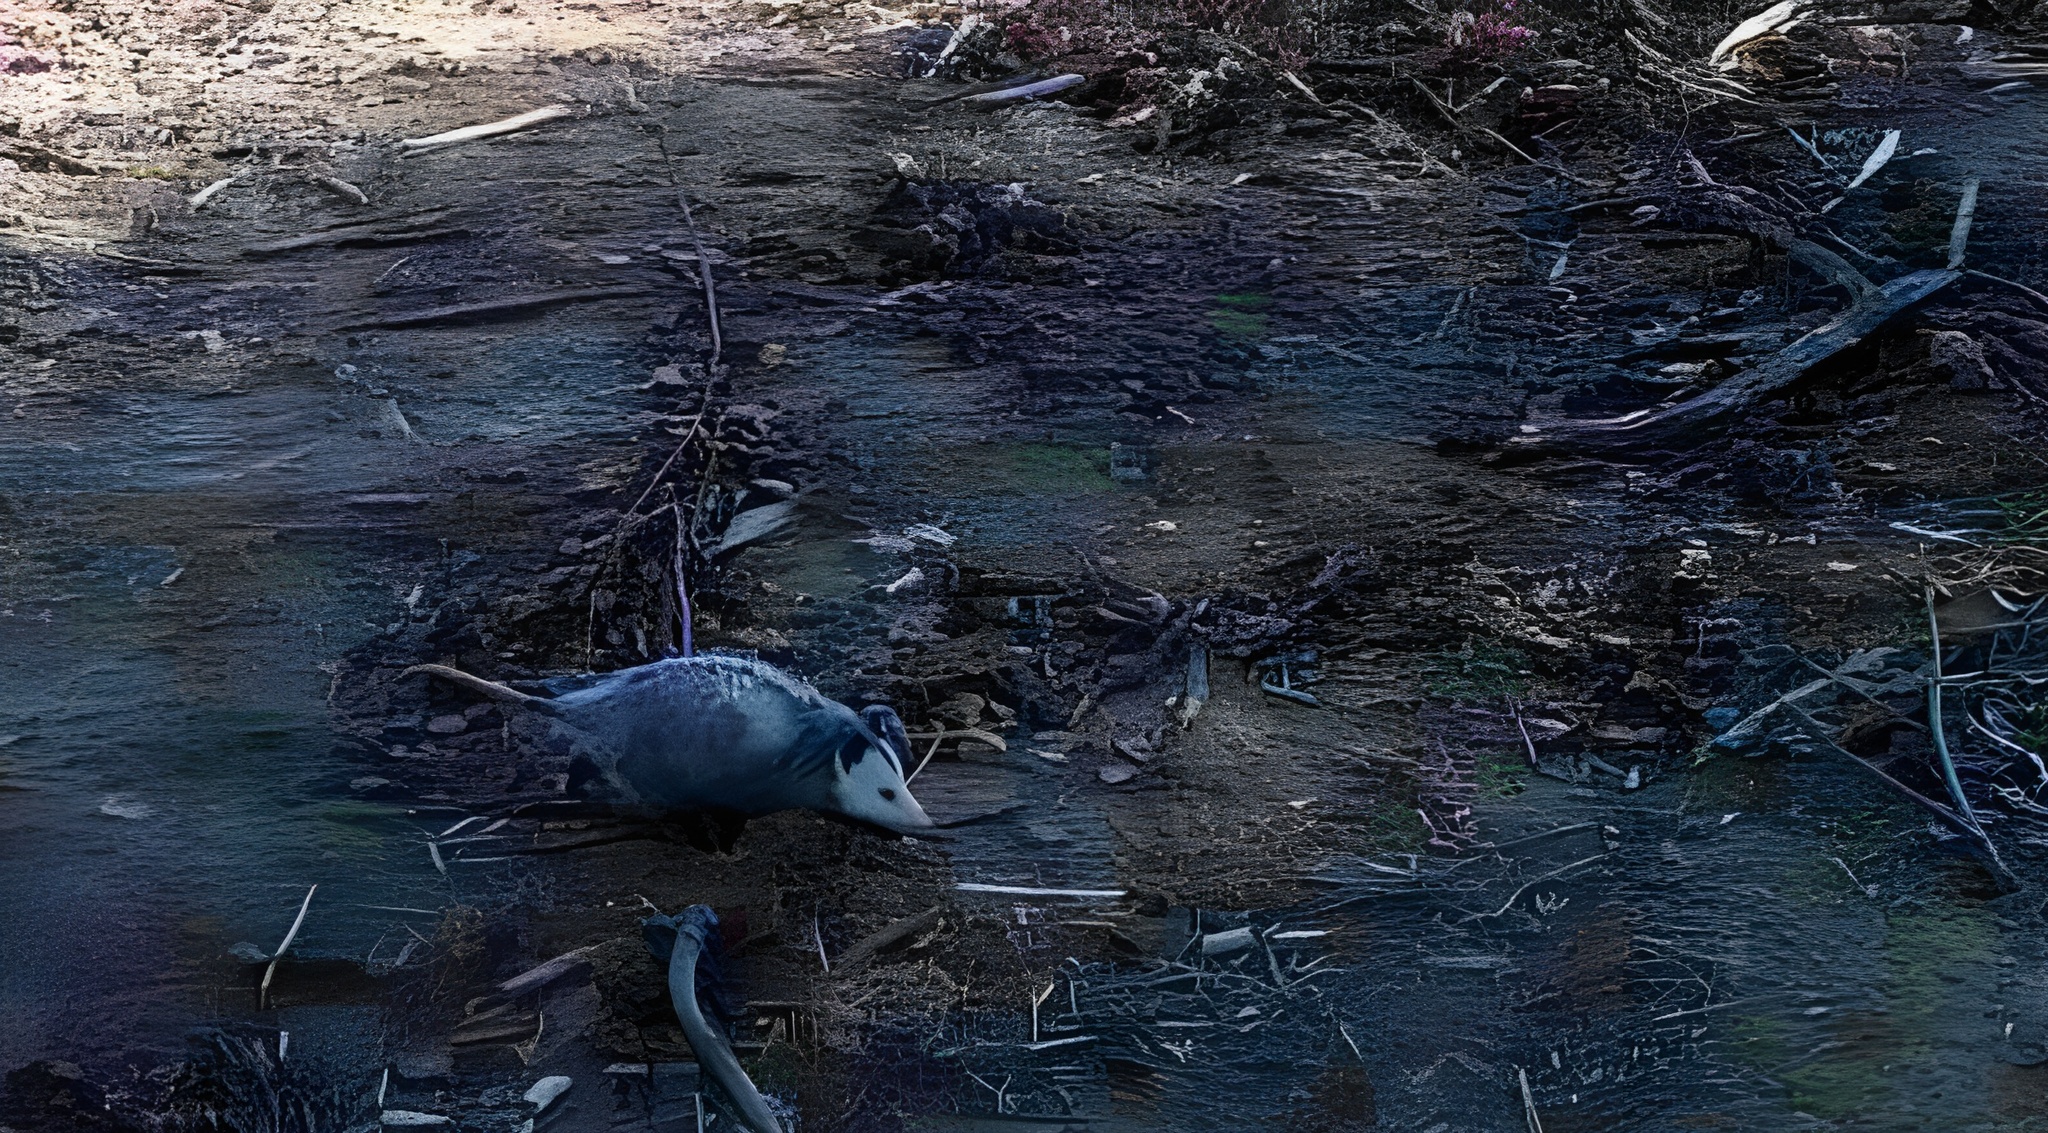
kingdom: Animalia
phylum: Chordata
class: Mammalia
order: Didelphimorphia
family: Didelphidae
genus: Didelphis
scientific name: Didelphis virginiana
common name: Virginia opossum
